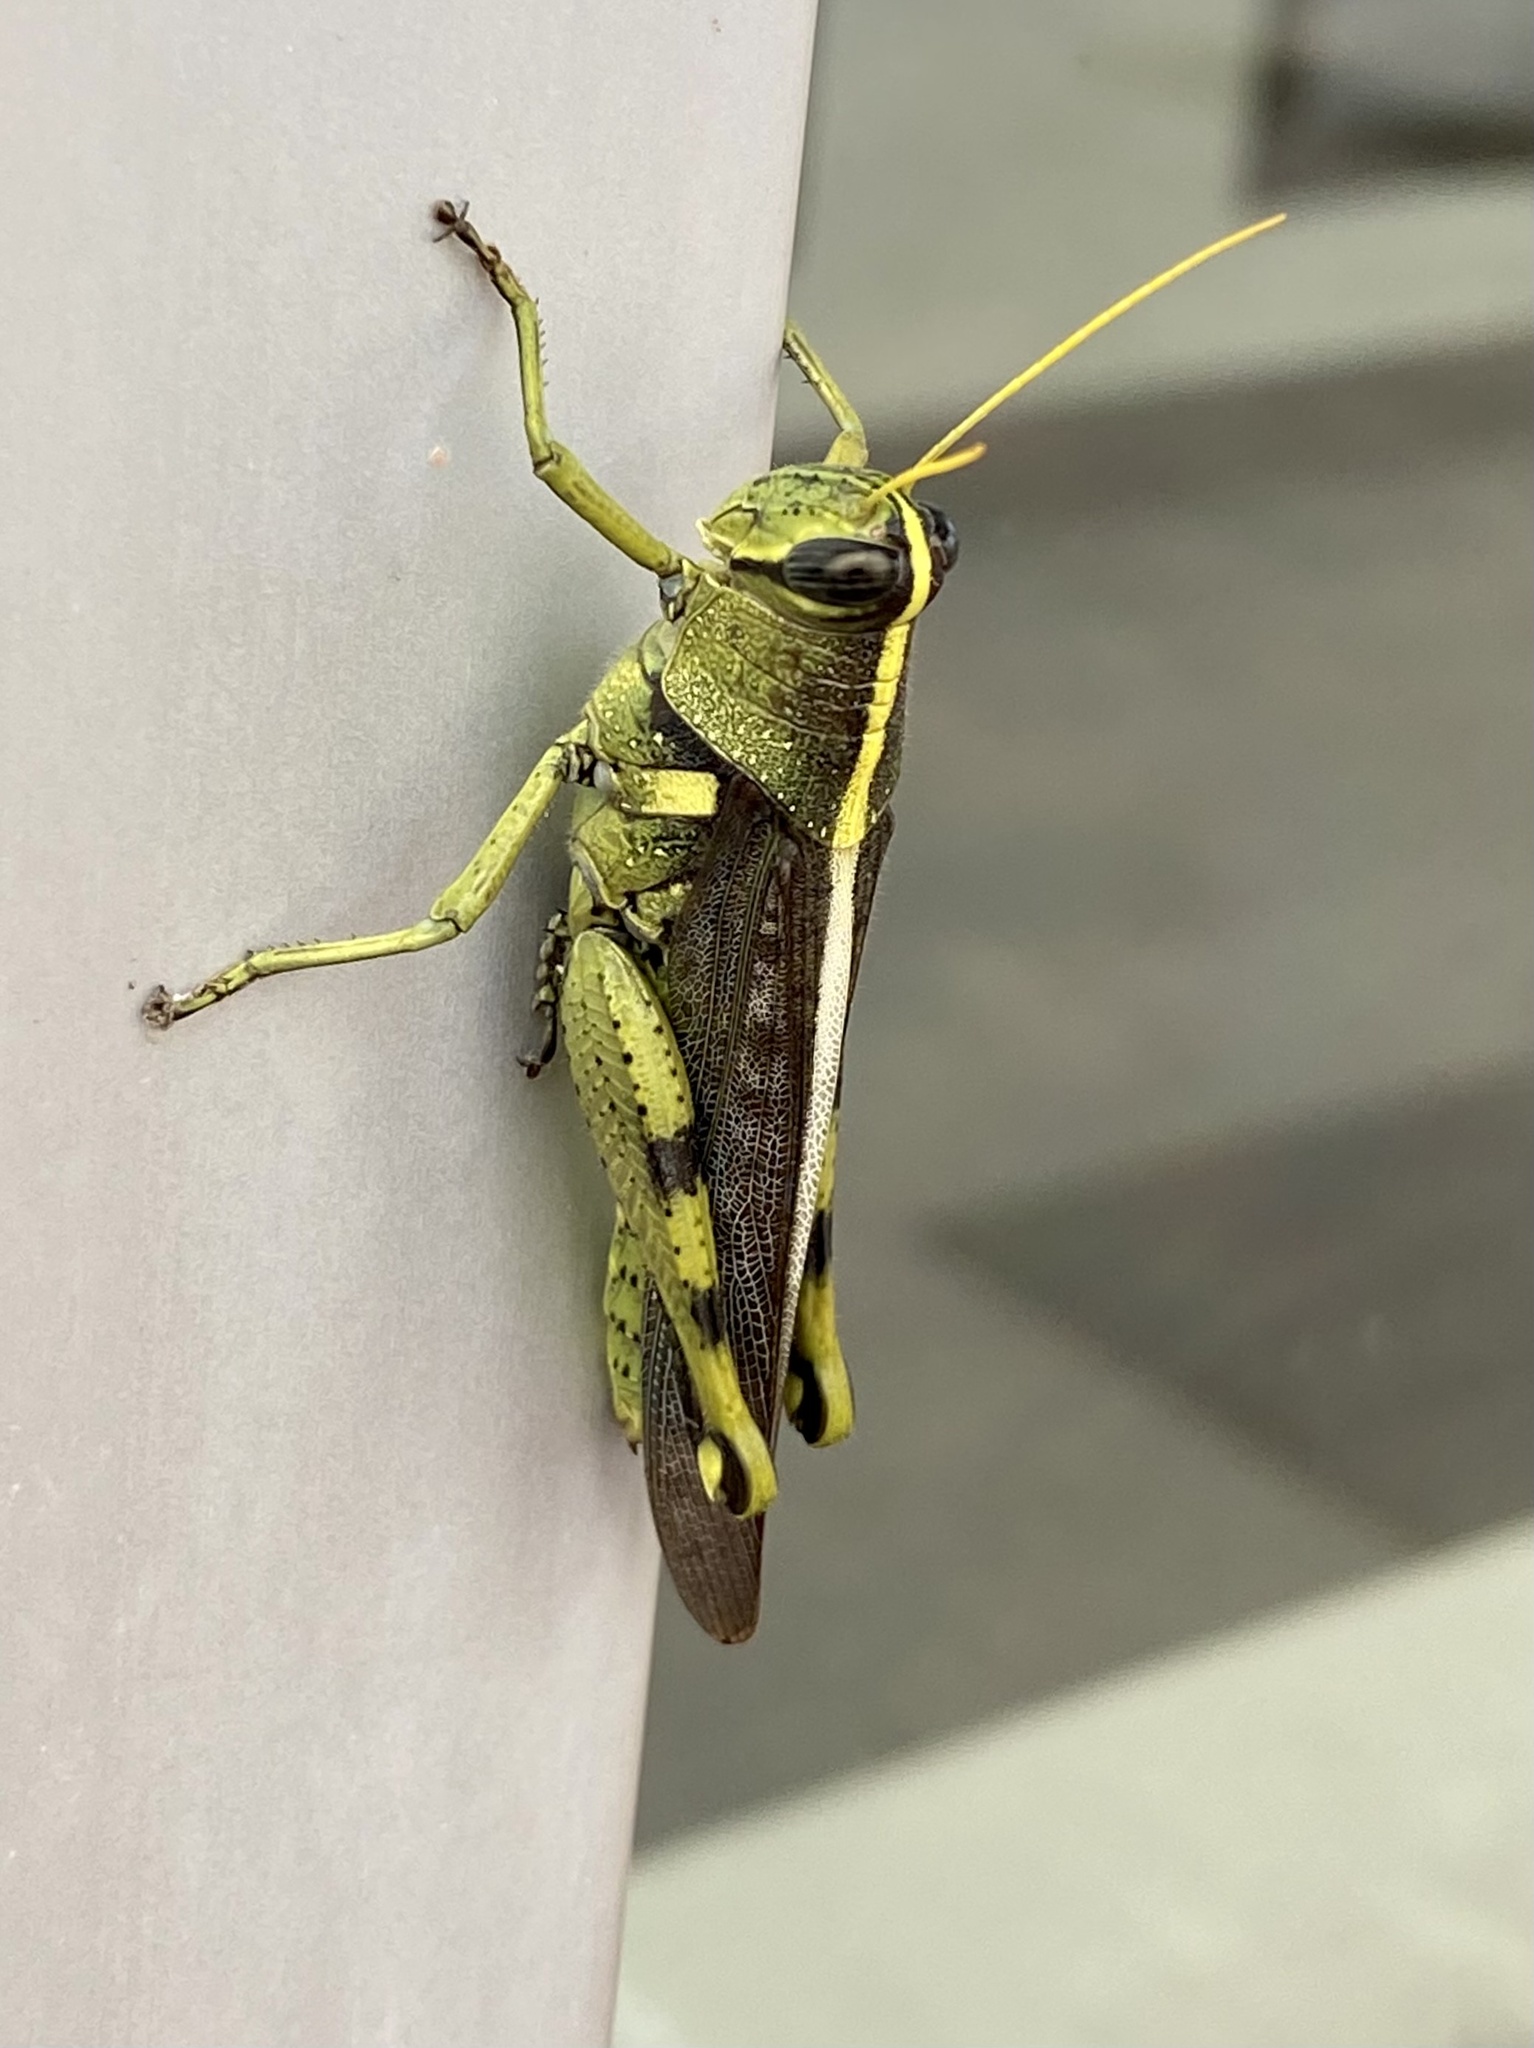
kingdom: Animalia
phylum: Arthropoda
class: Insecta
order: Orthoptera
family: Acrididae
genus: Schistocerca
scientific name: Schistocerca obscura
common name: Obscure bird grasshopper
